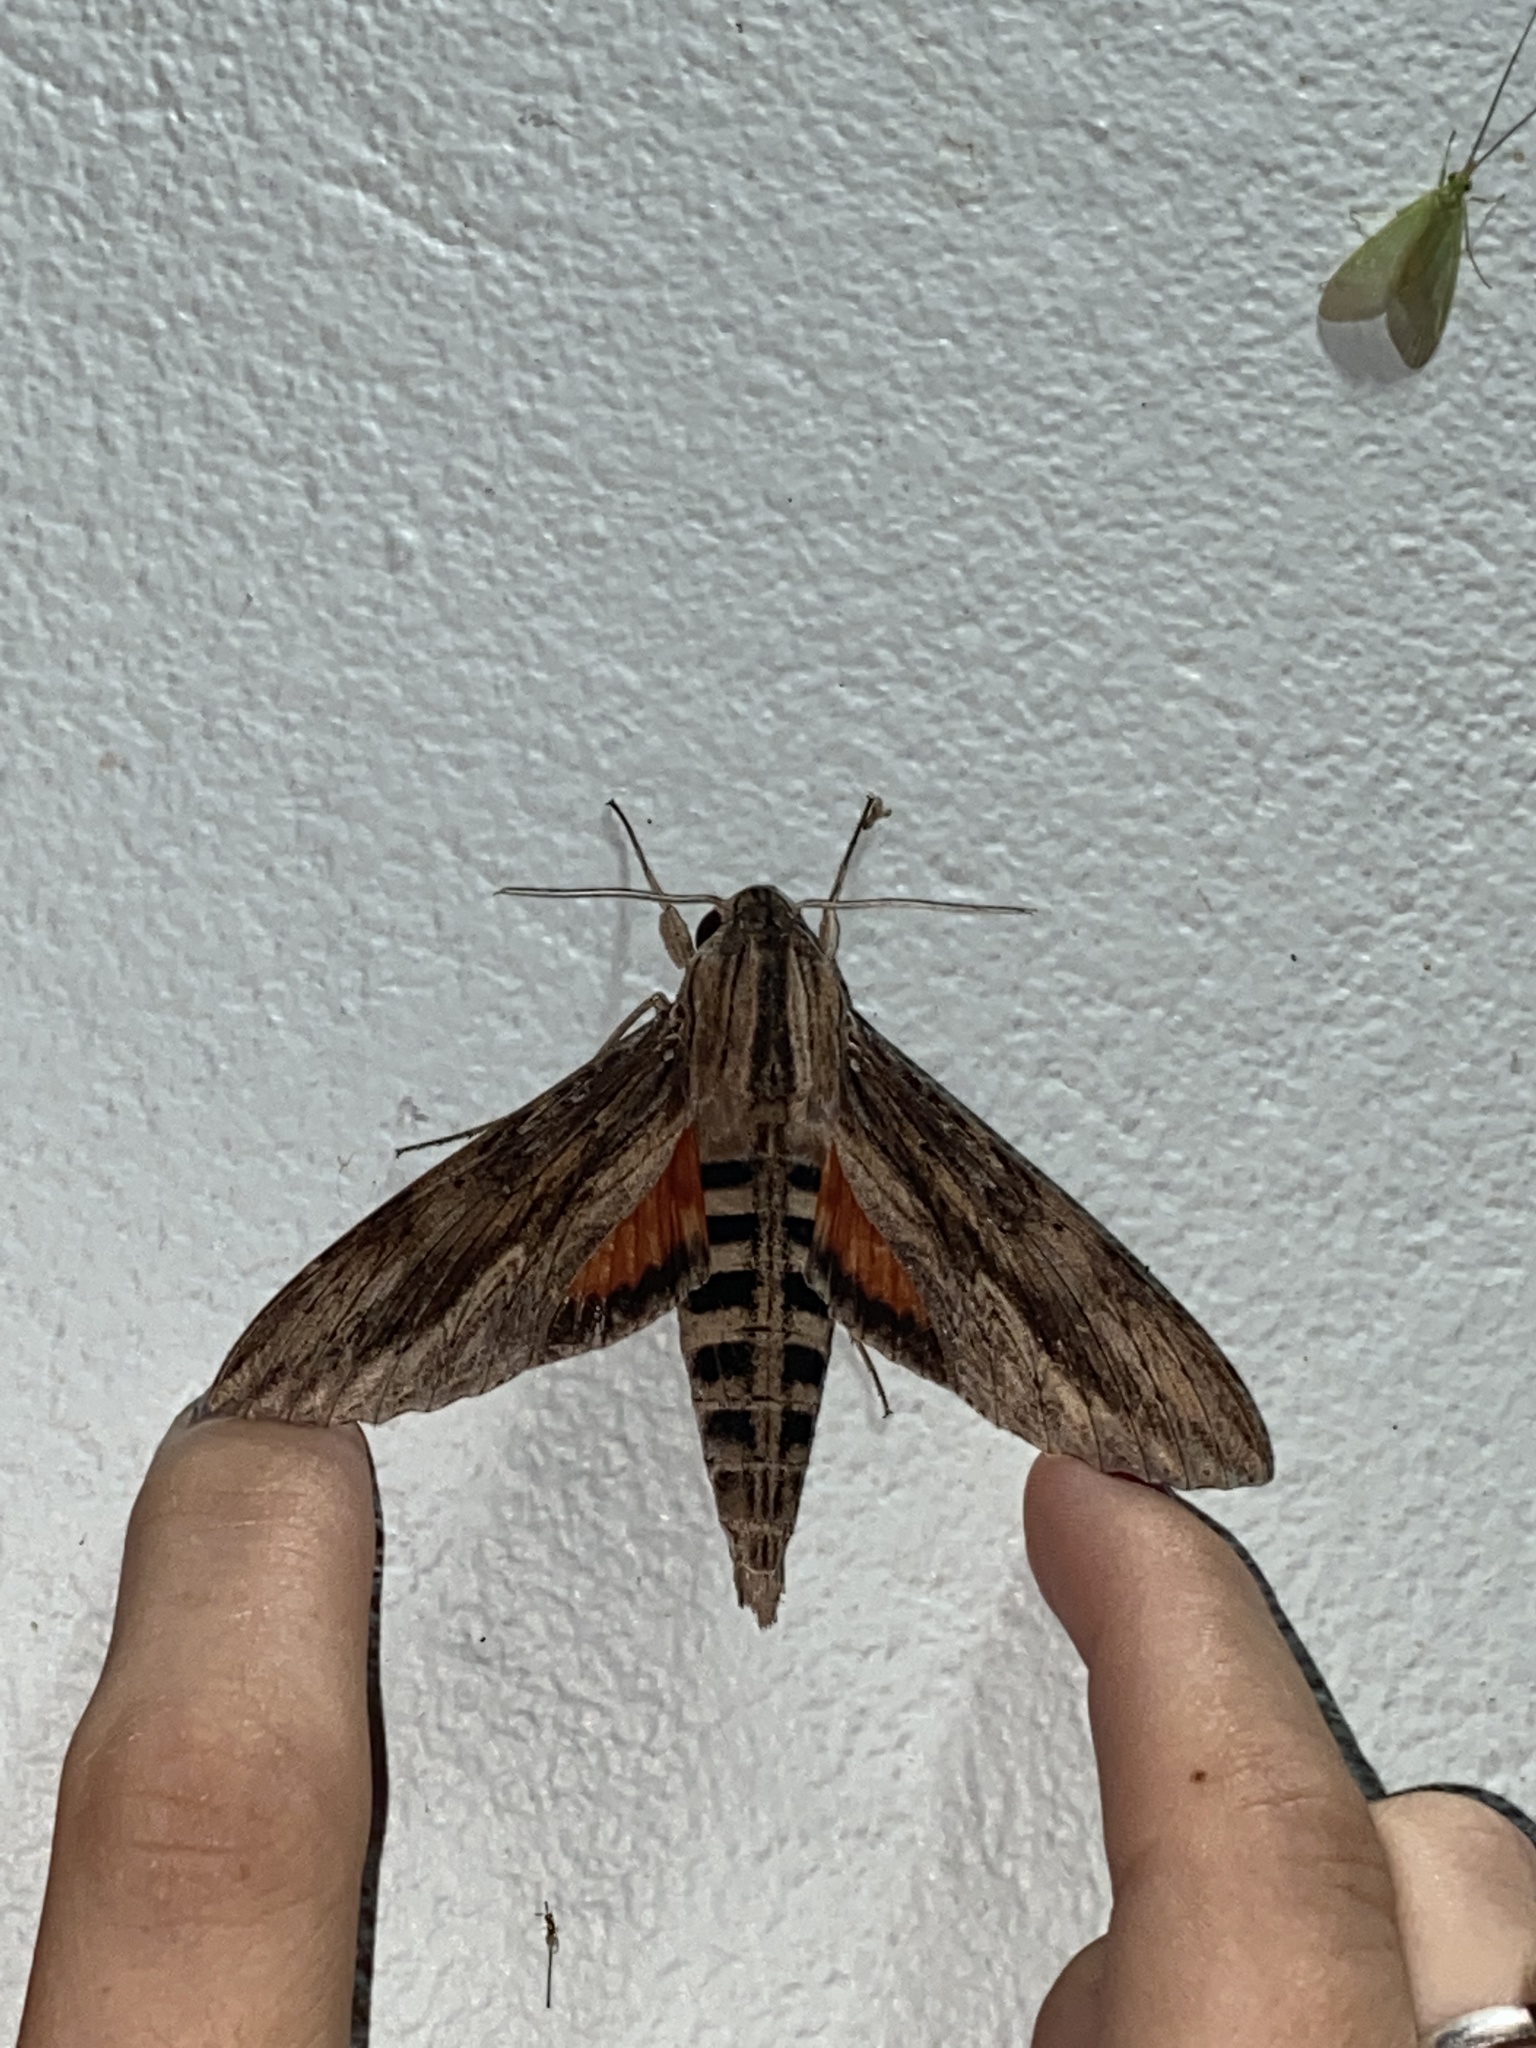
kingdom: Animalia
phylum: Arthropoda
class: Insecta
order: Lepidoptera
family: Sphingidae
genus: Erinnyis
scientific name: Erinnyis ello
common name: Ello sphinx
